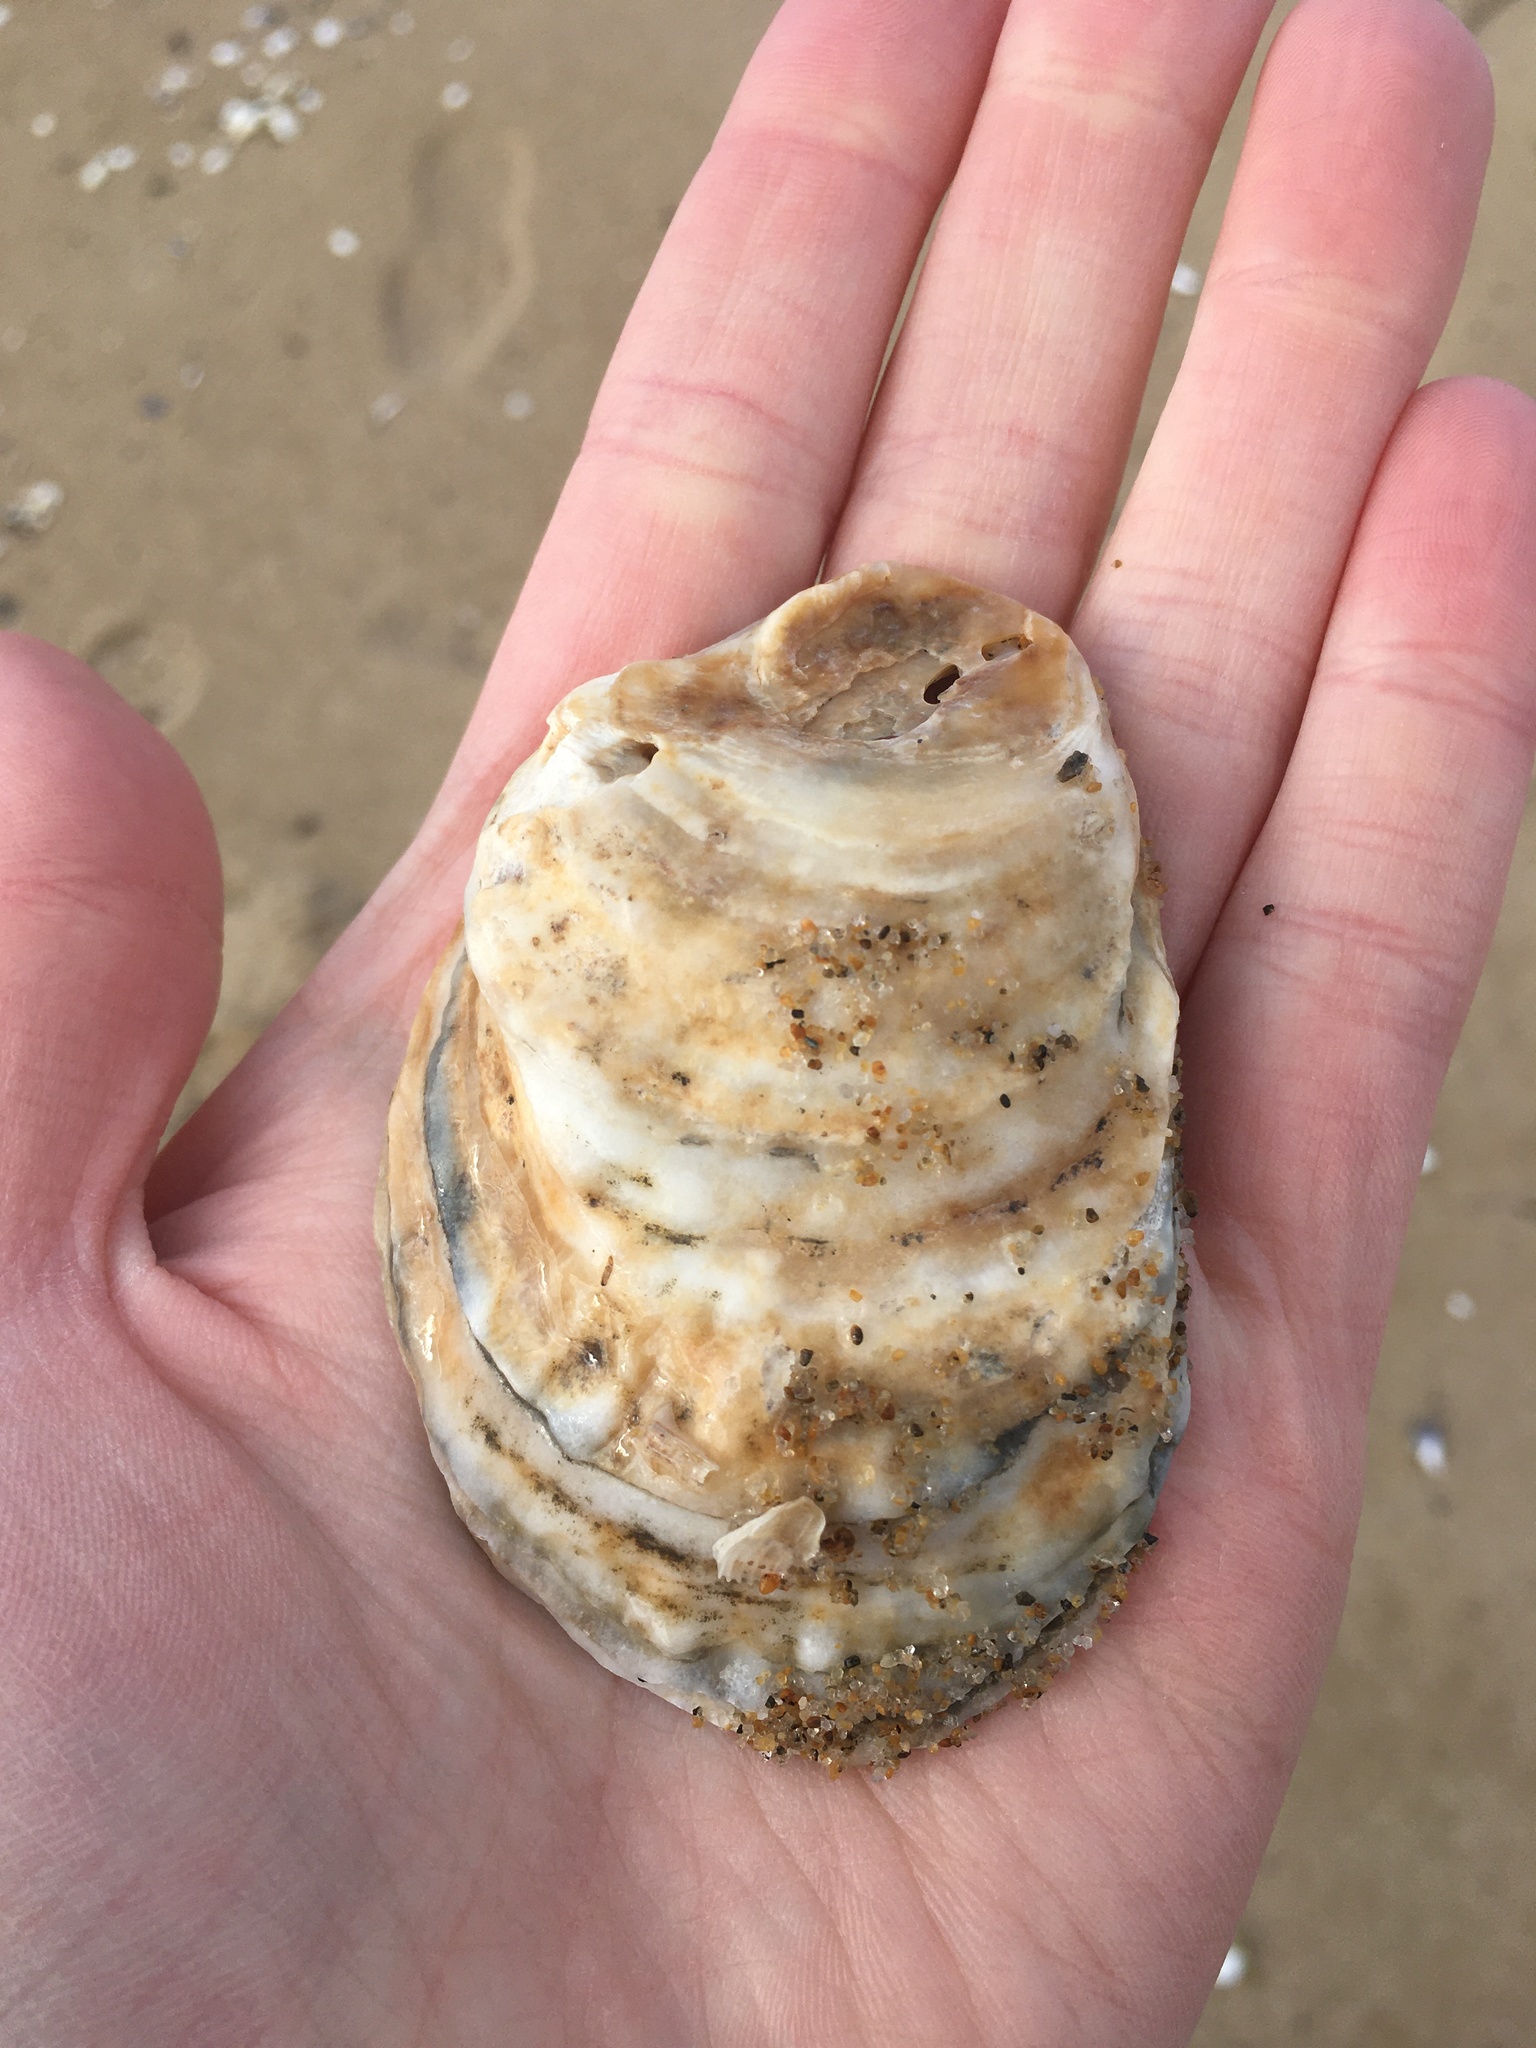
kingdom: Animalia
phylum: Mollusca
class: Bivalvia
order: Ostreida
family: Ostreidae
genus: Crassostrea
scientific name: Crassostrea virginica
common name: American oyster
